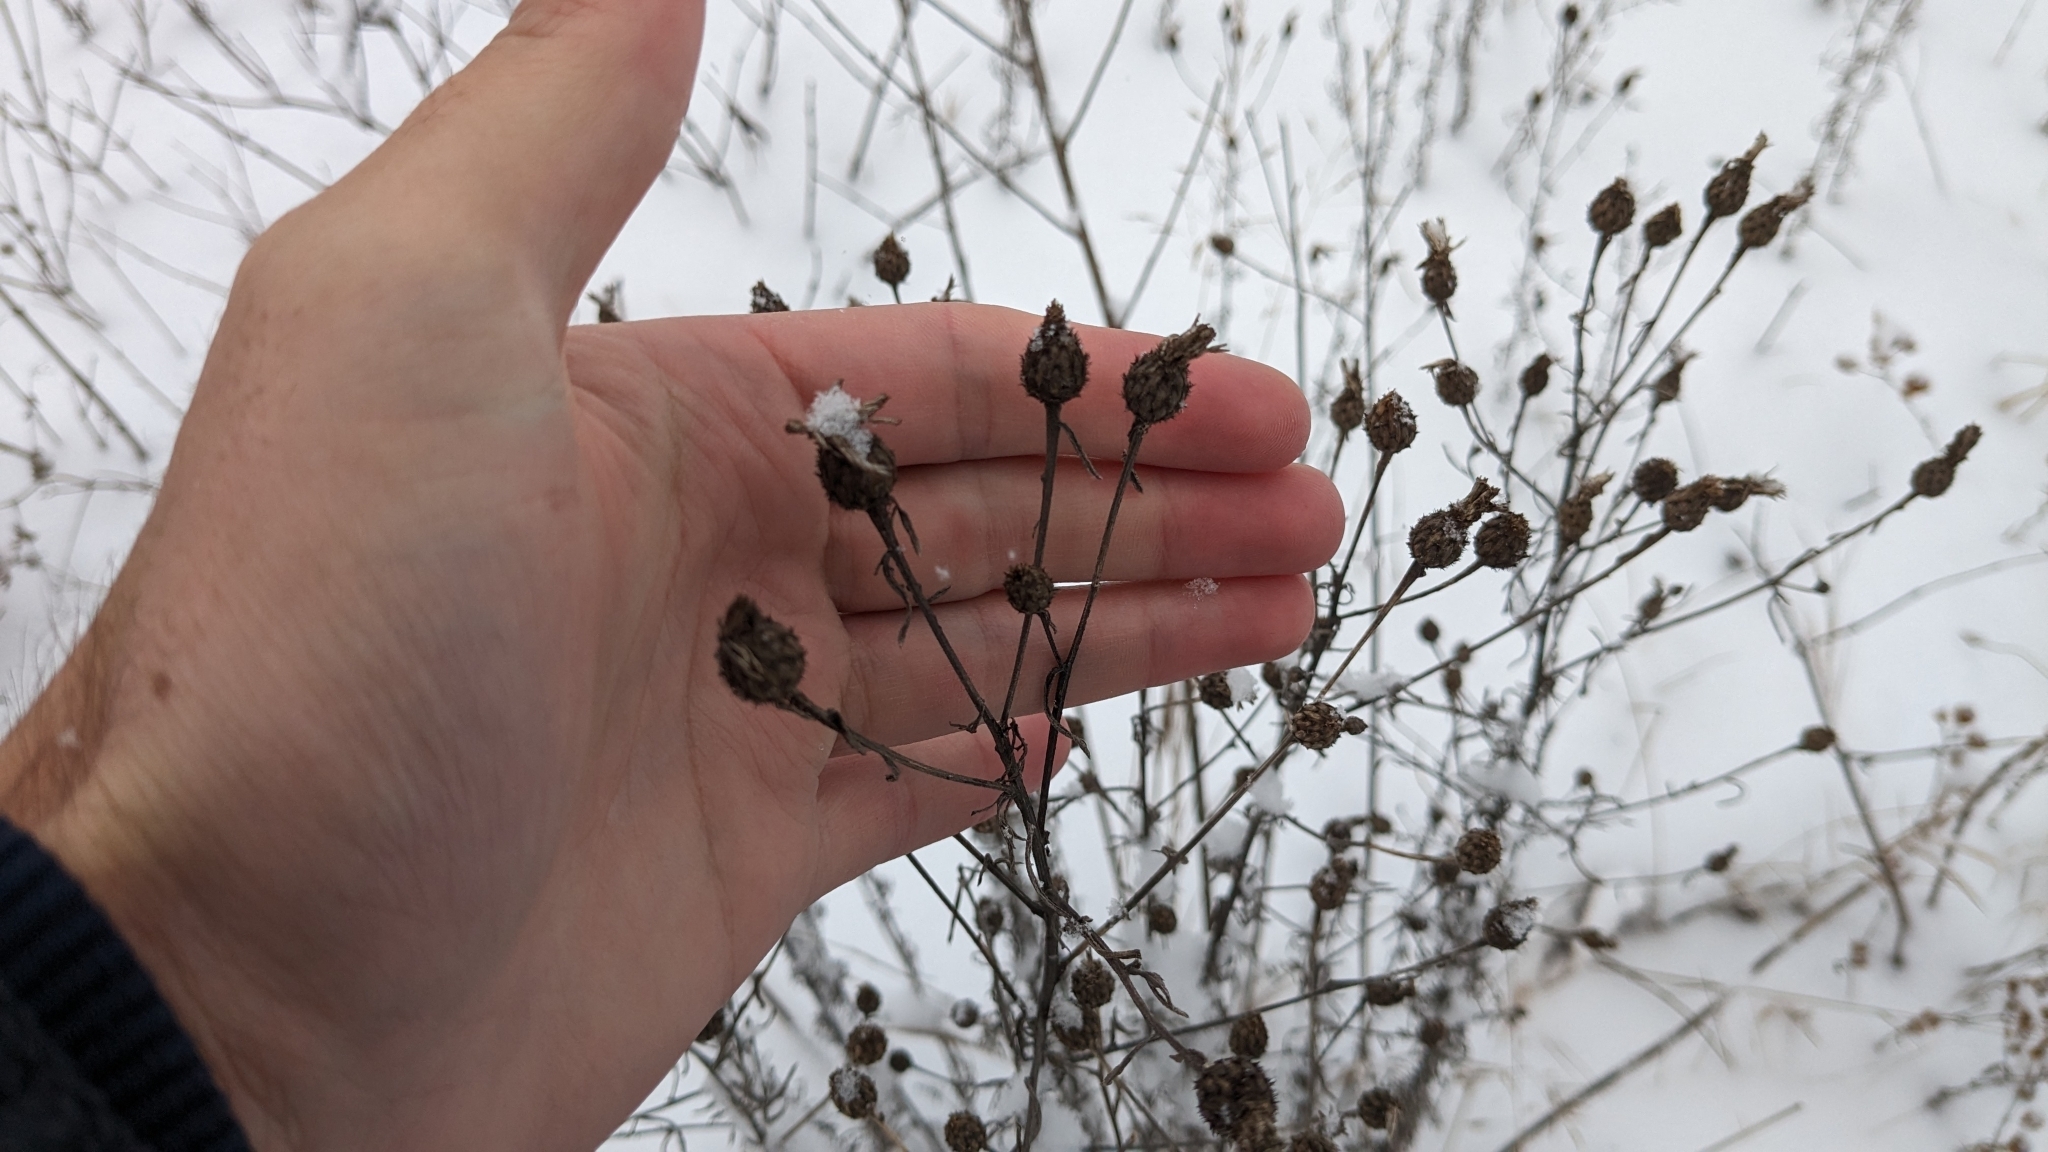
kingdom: Plantae
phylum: Tracheophyta
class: Magnoliopsida
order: Asterales
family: Asteraceae
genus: Centaurea
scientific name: Centaurea stoebe
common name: Spotted knapweed
